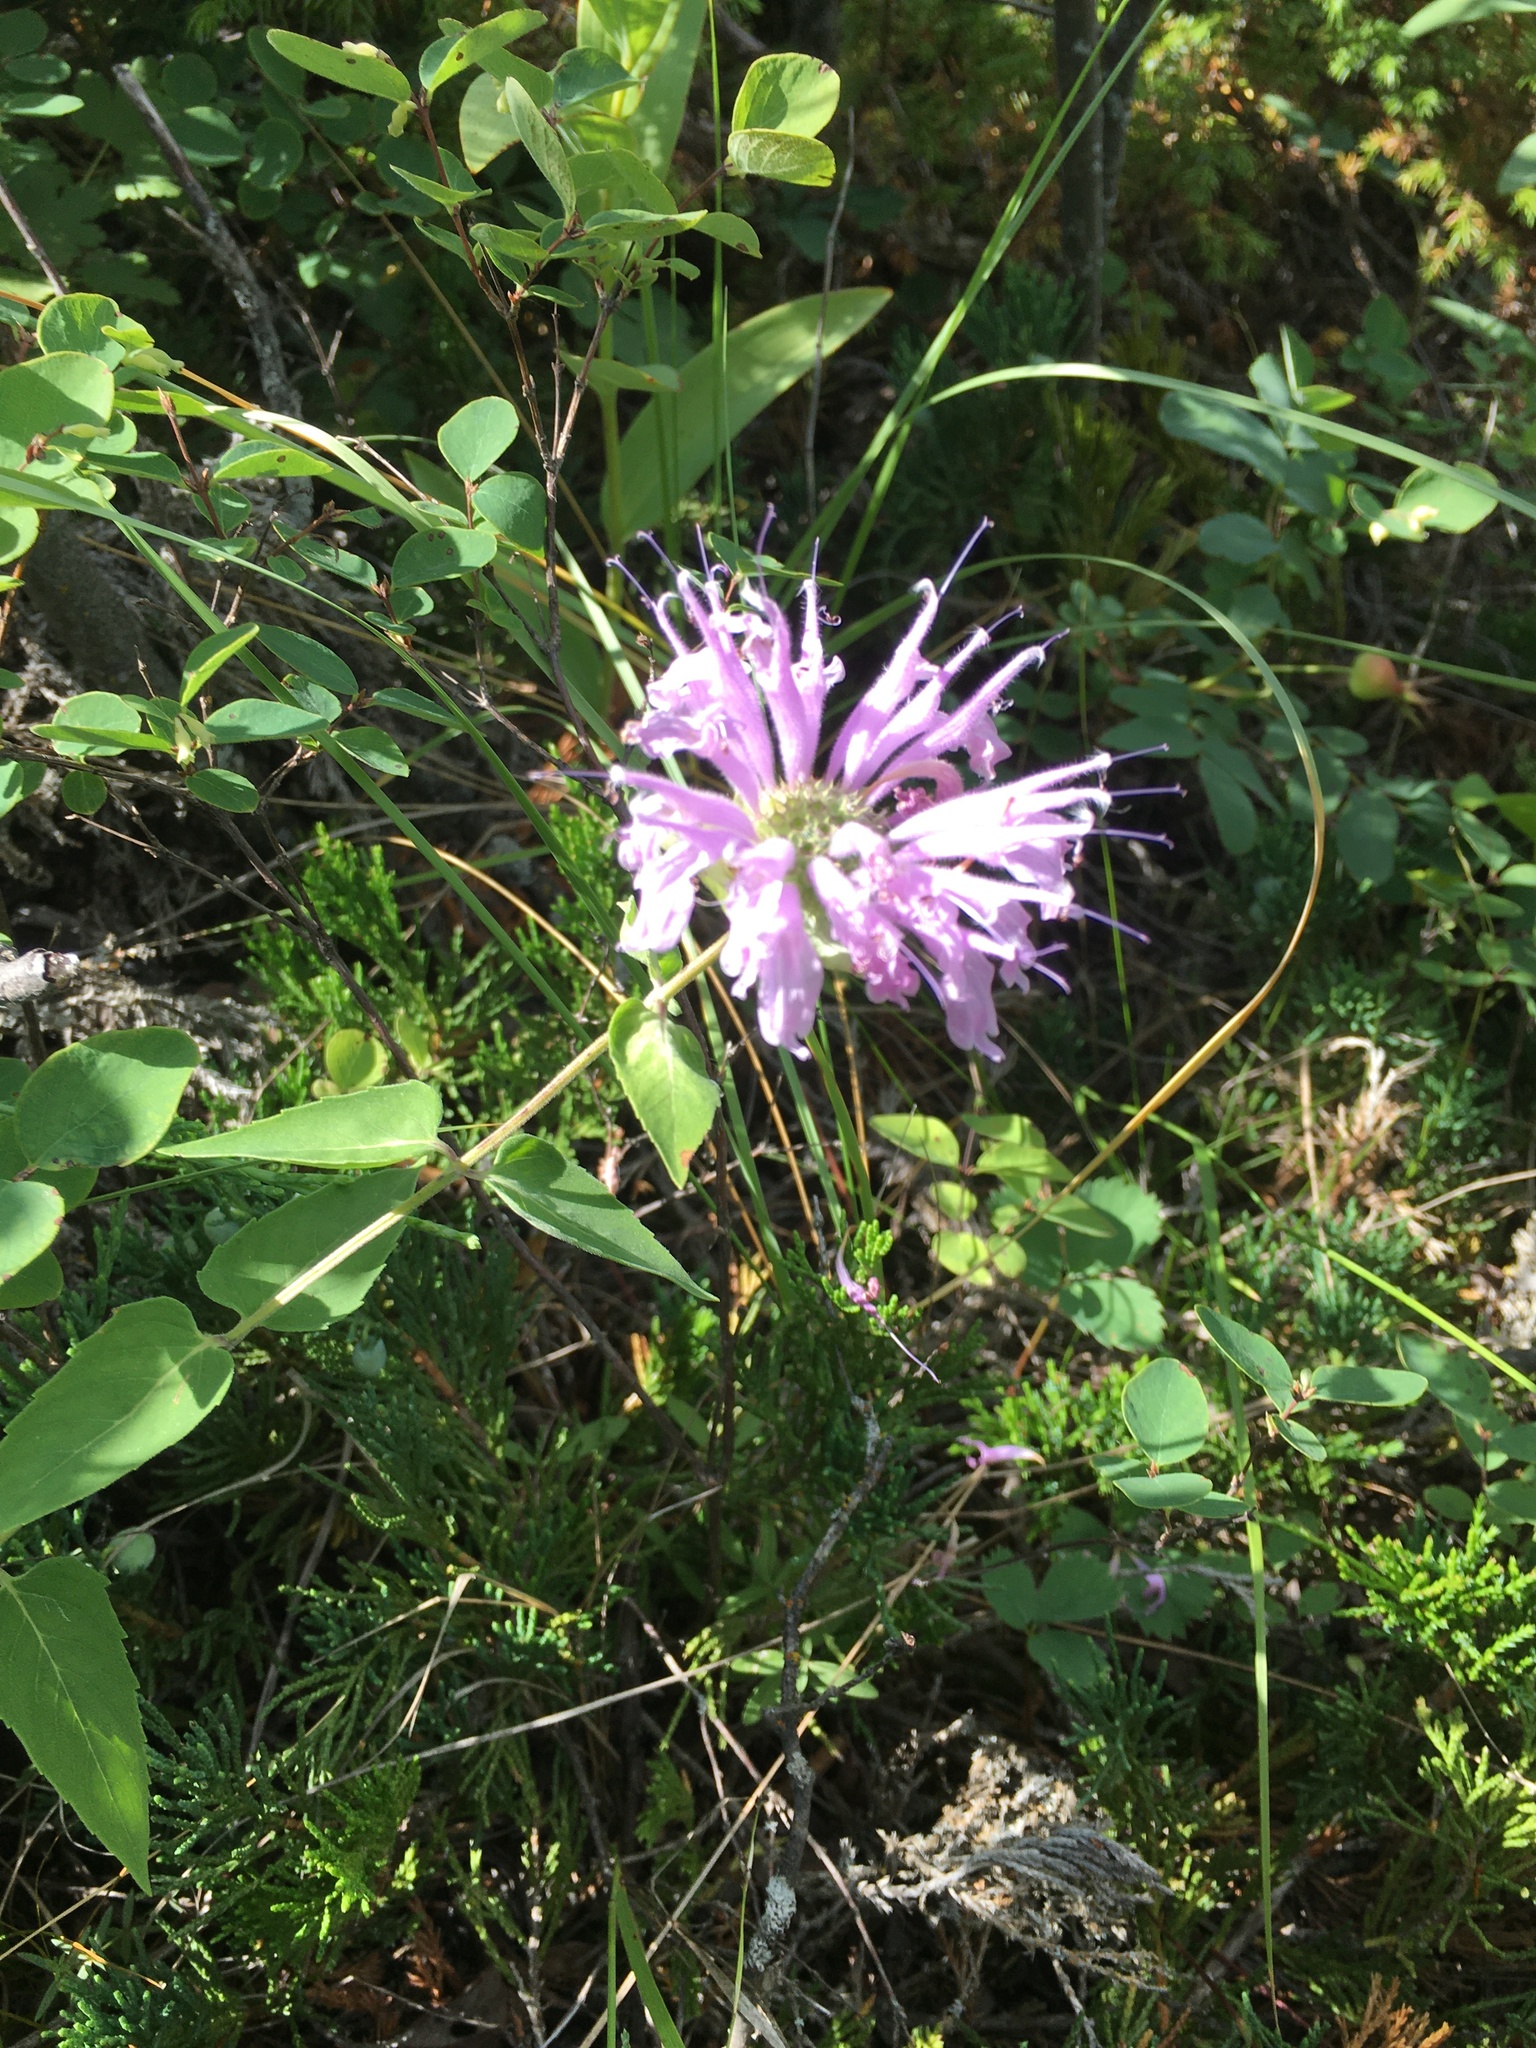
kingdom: Plantae
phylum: Tracheophyta
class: Magnoliopsida
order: Lamiales
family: Lamiaceae
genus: Monarda
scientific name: Monarda fistulosa
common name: Purple beebalm
